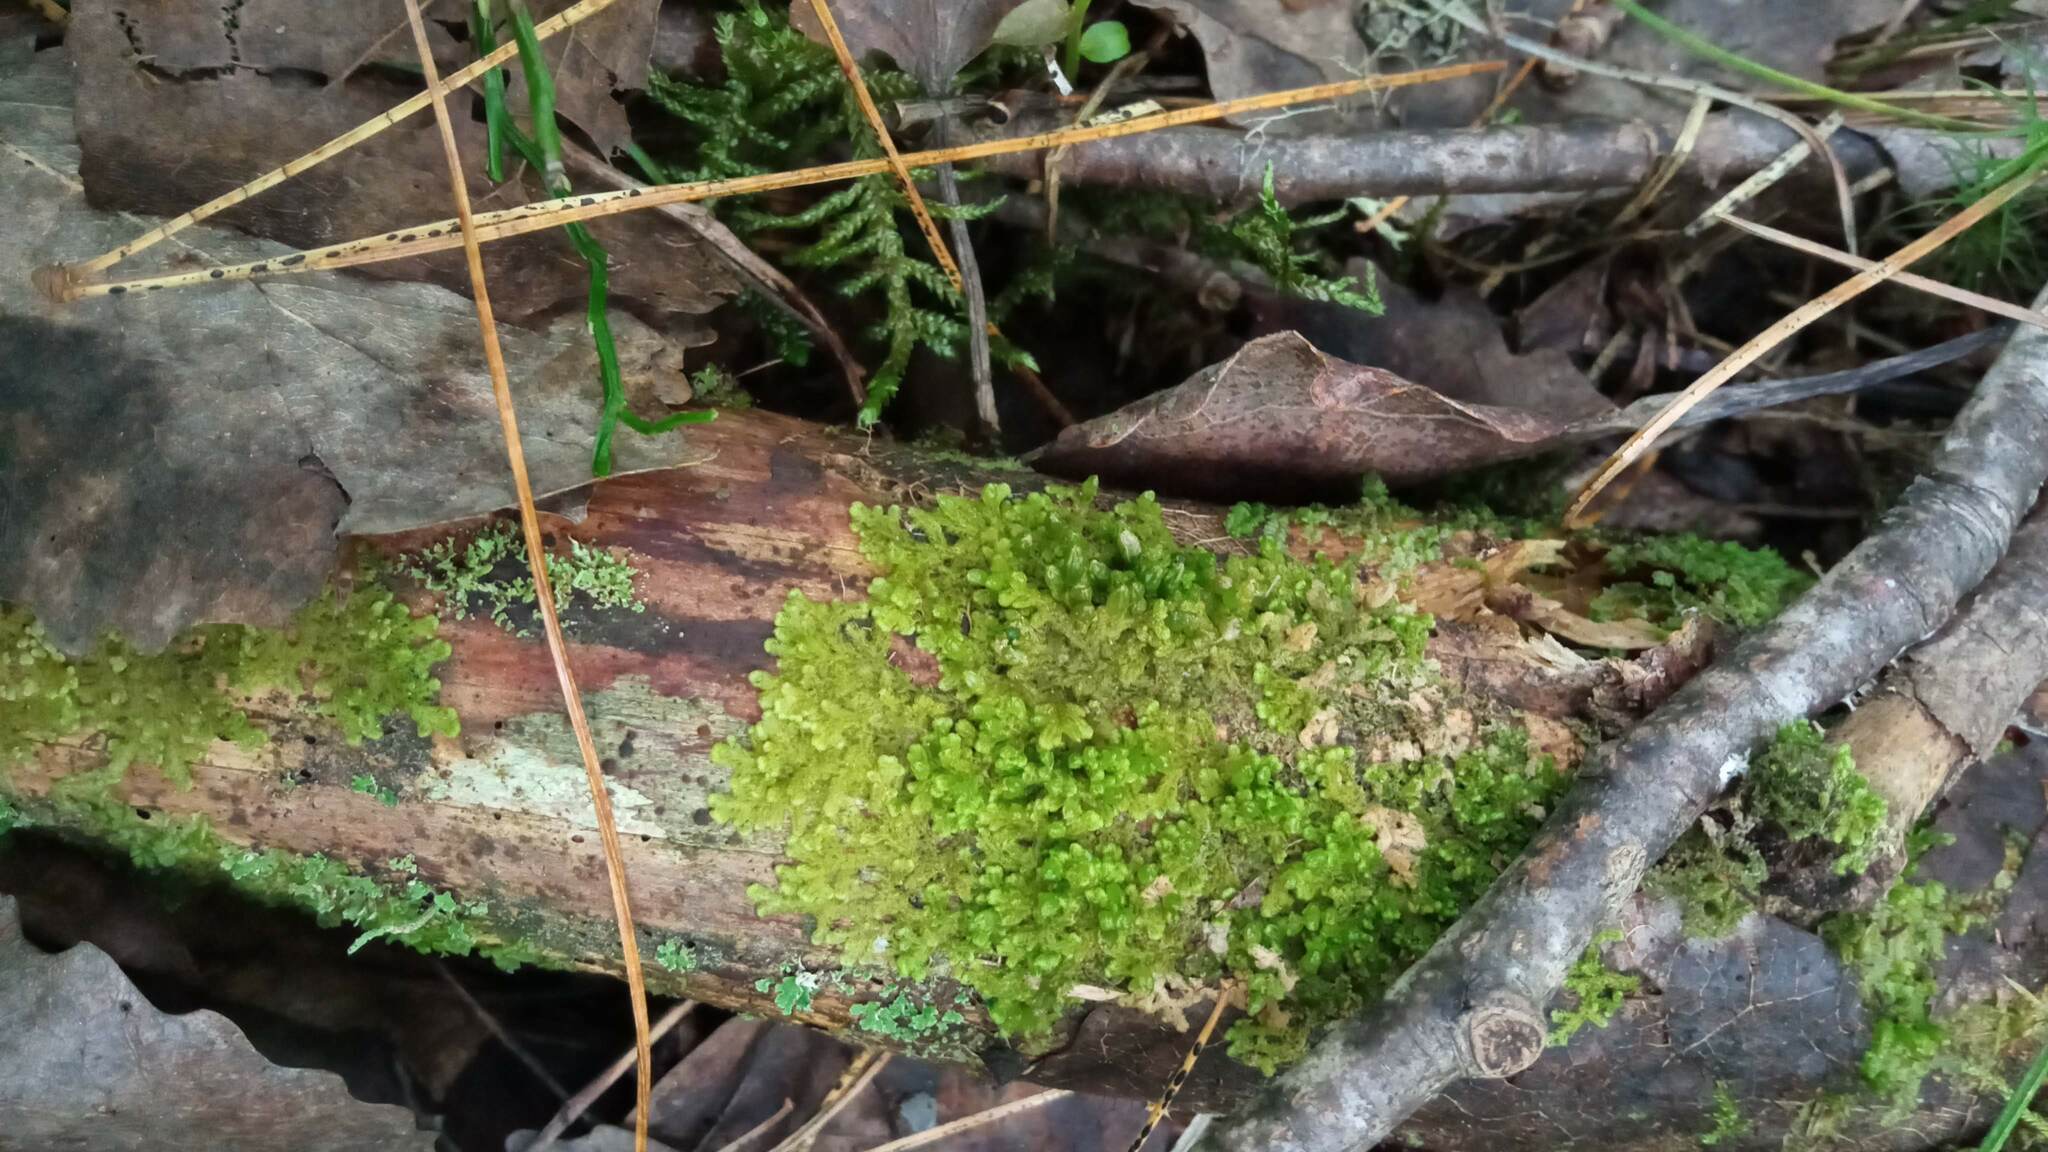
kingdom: Plantae
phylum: Marchantiophyta
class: Jungermanniopsida
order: Ptilidiales
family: Ptilidiaceae
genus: Ptilidium
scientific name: Ptilidium pulcherrimum
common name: Tree fringewort
